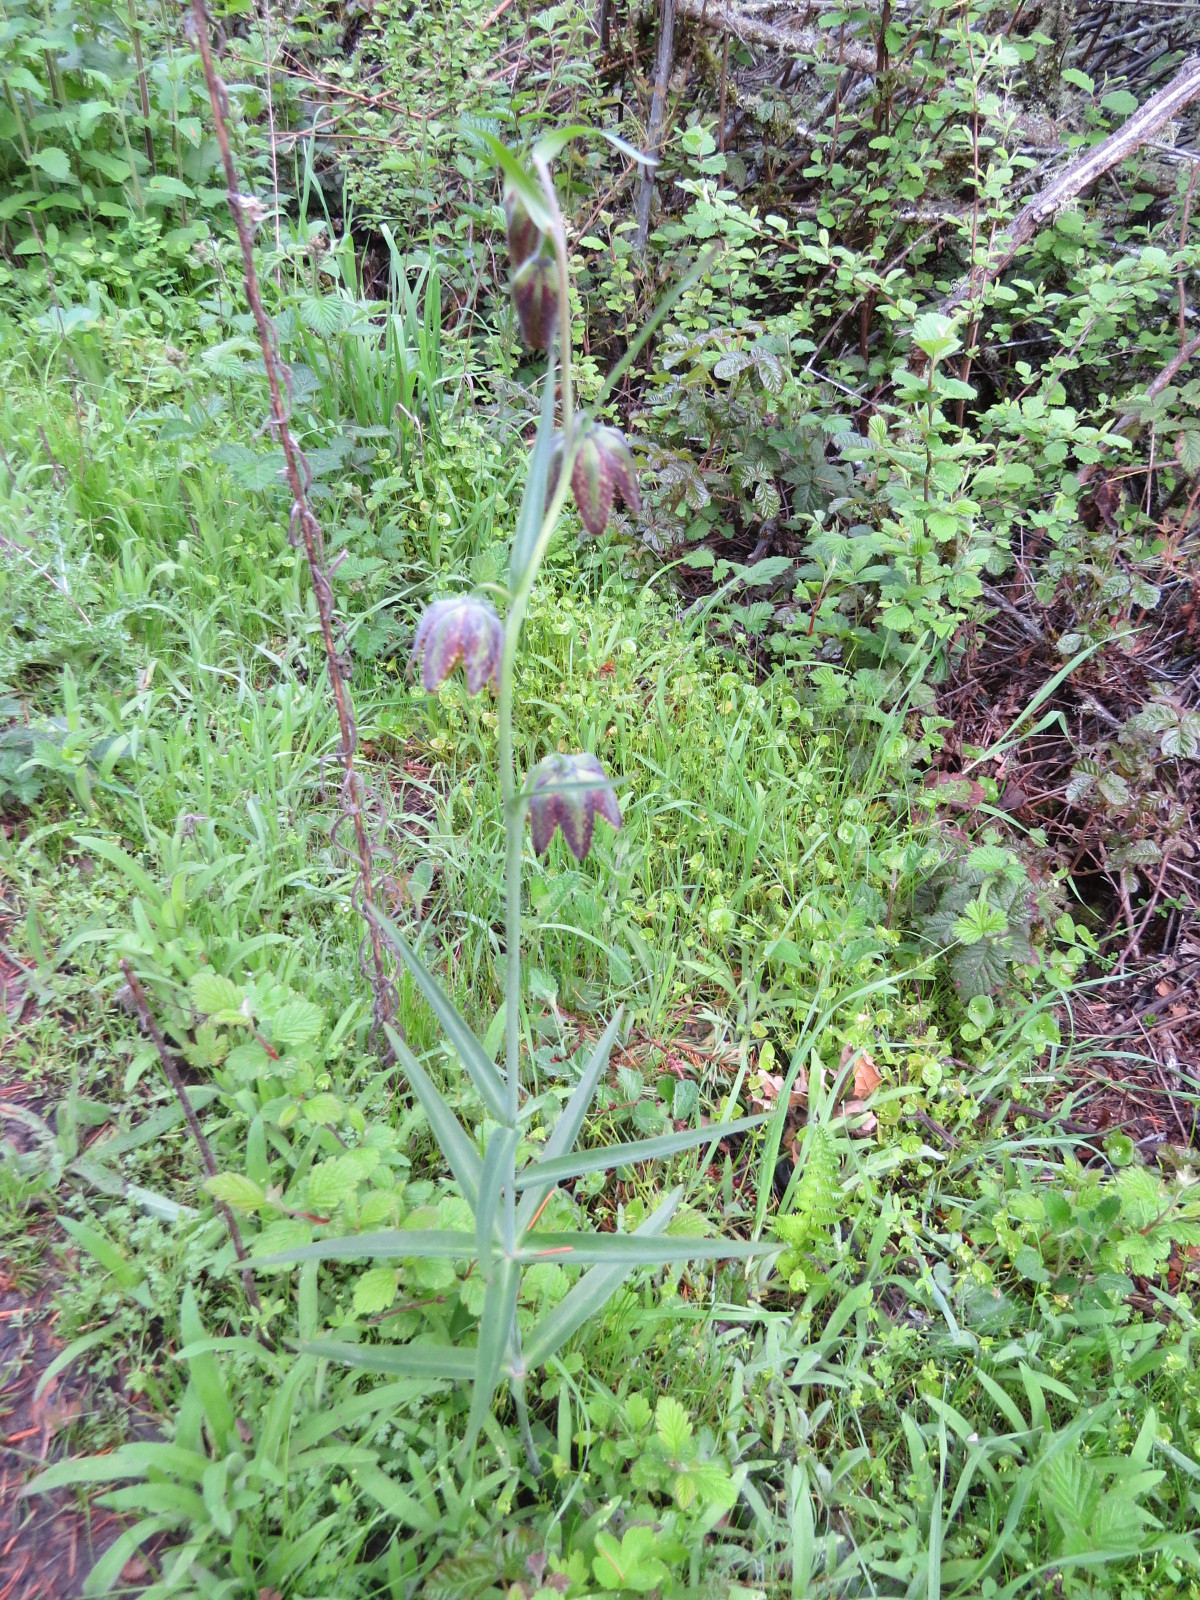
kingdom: Plantae
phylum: Tracheophyta
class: Liliopsida
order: Liliales
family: Liliaceae
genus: Fritillaria
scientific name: Fritillaria affinis
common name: Ojai fritillary
